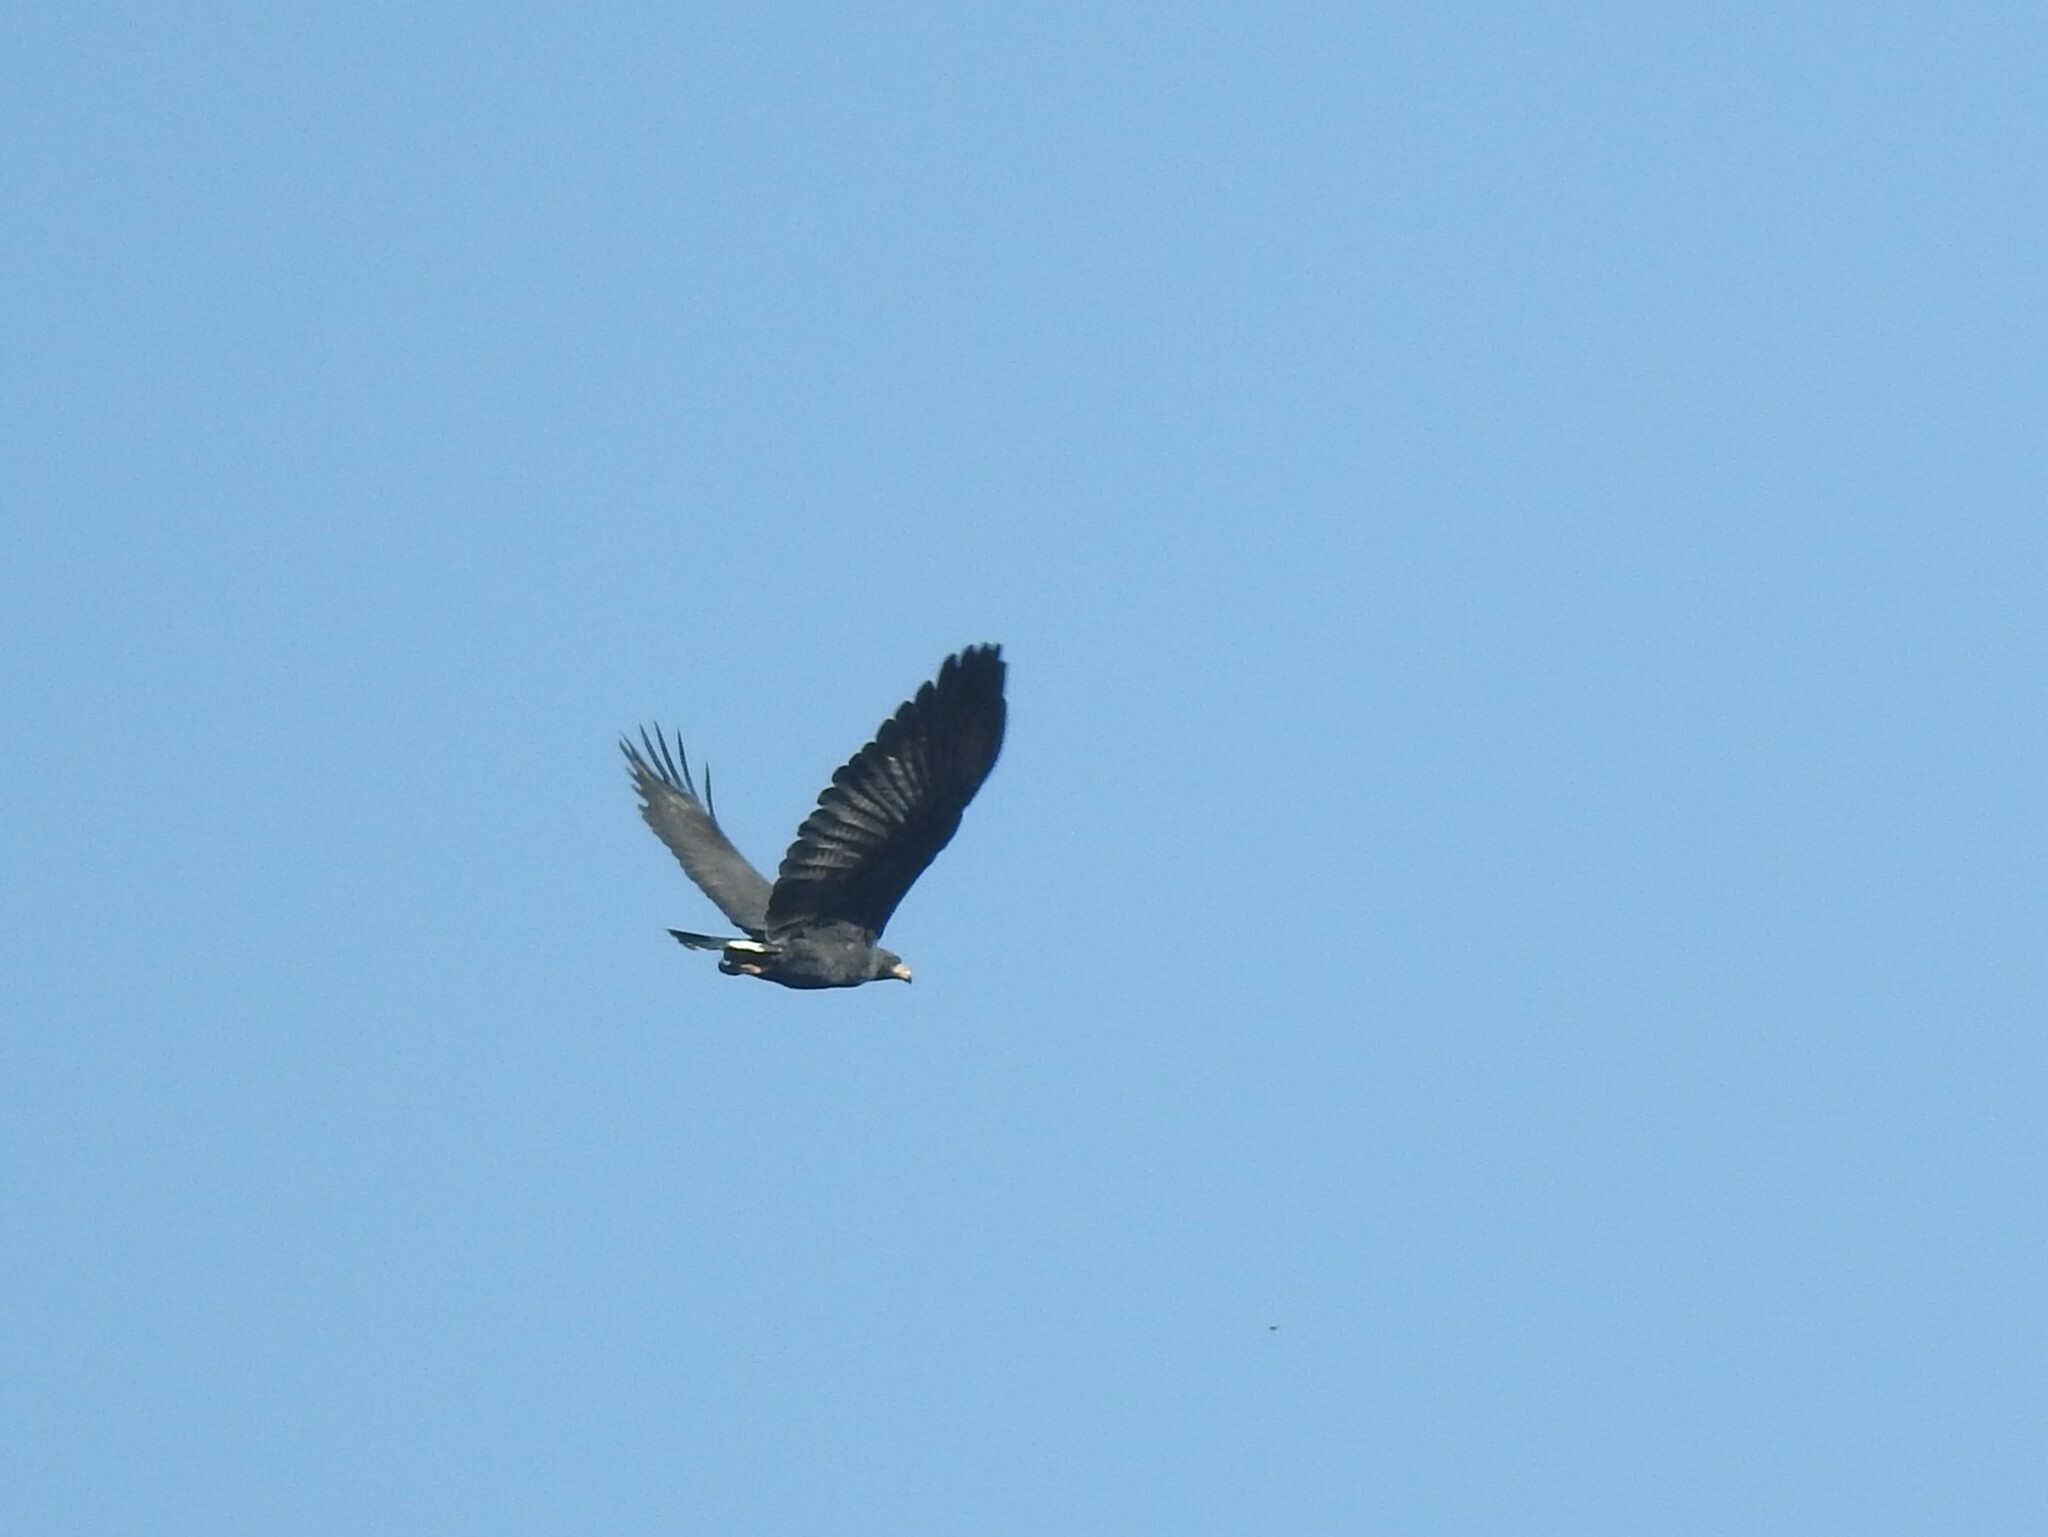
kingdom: Animalia
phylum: Chordata
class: Aves
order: Accipitriformes
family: Accipitridae
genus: Buteogallus
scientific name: Buteogallus anthracinus
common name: Common black hawk
